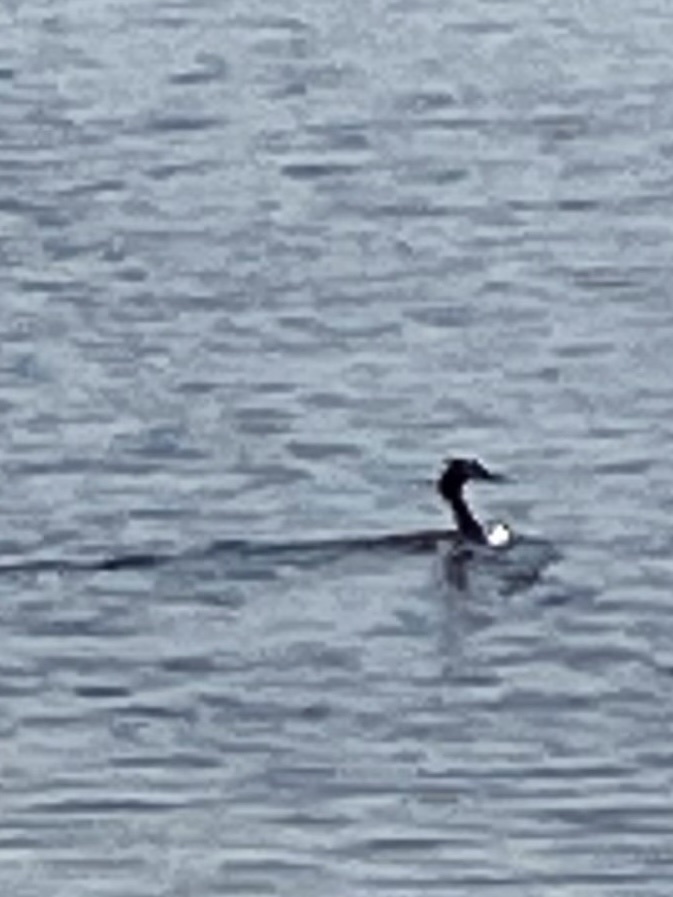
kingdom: Animalia
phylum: Chordata
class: Aves
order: Podicipediformes
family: Podicipedidae
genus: Podiceps
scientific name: Podiceps cristatus
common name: Great crested grebe
